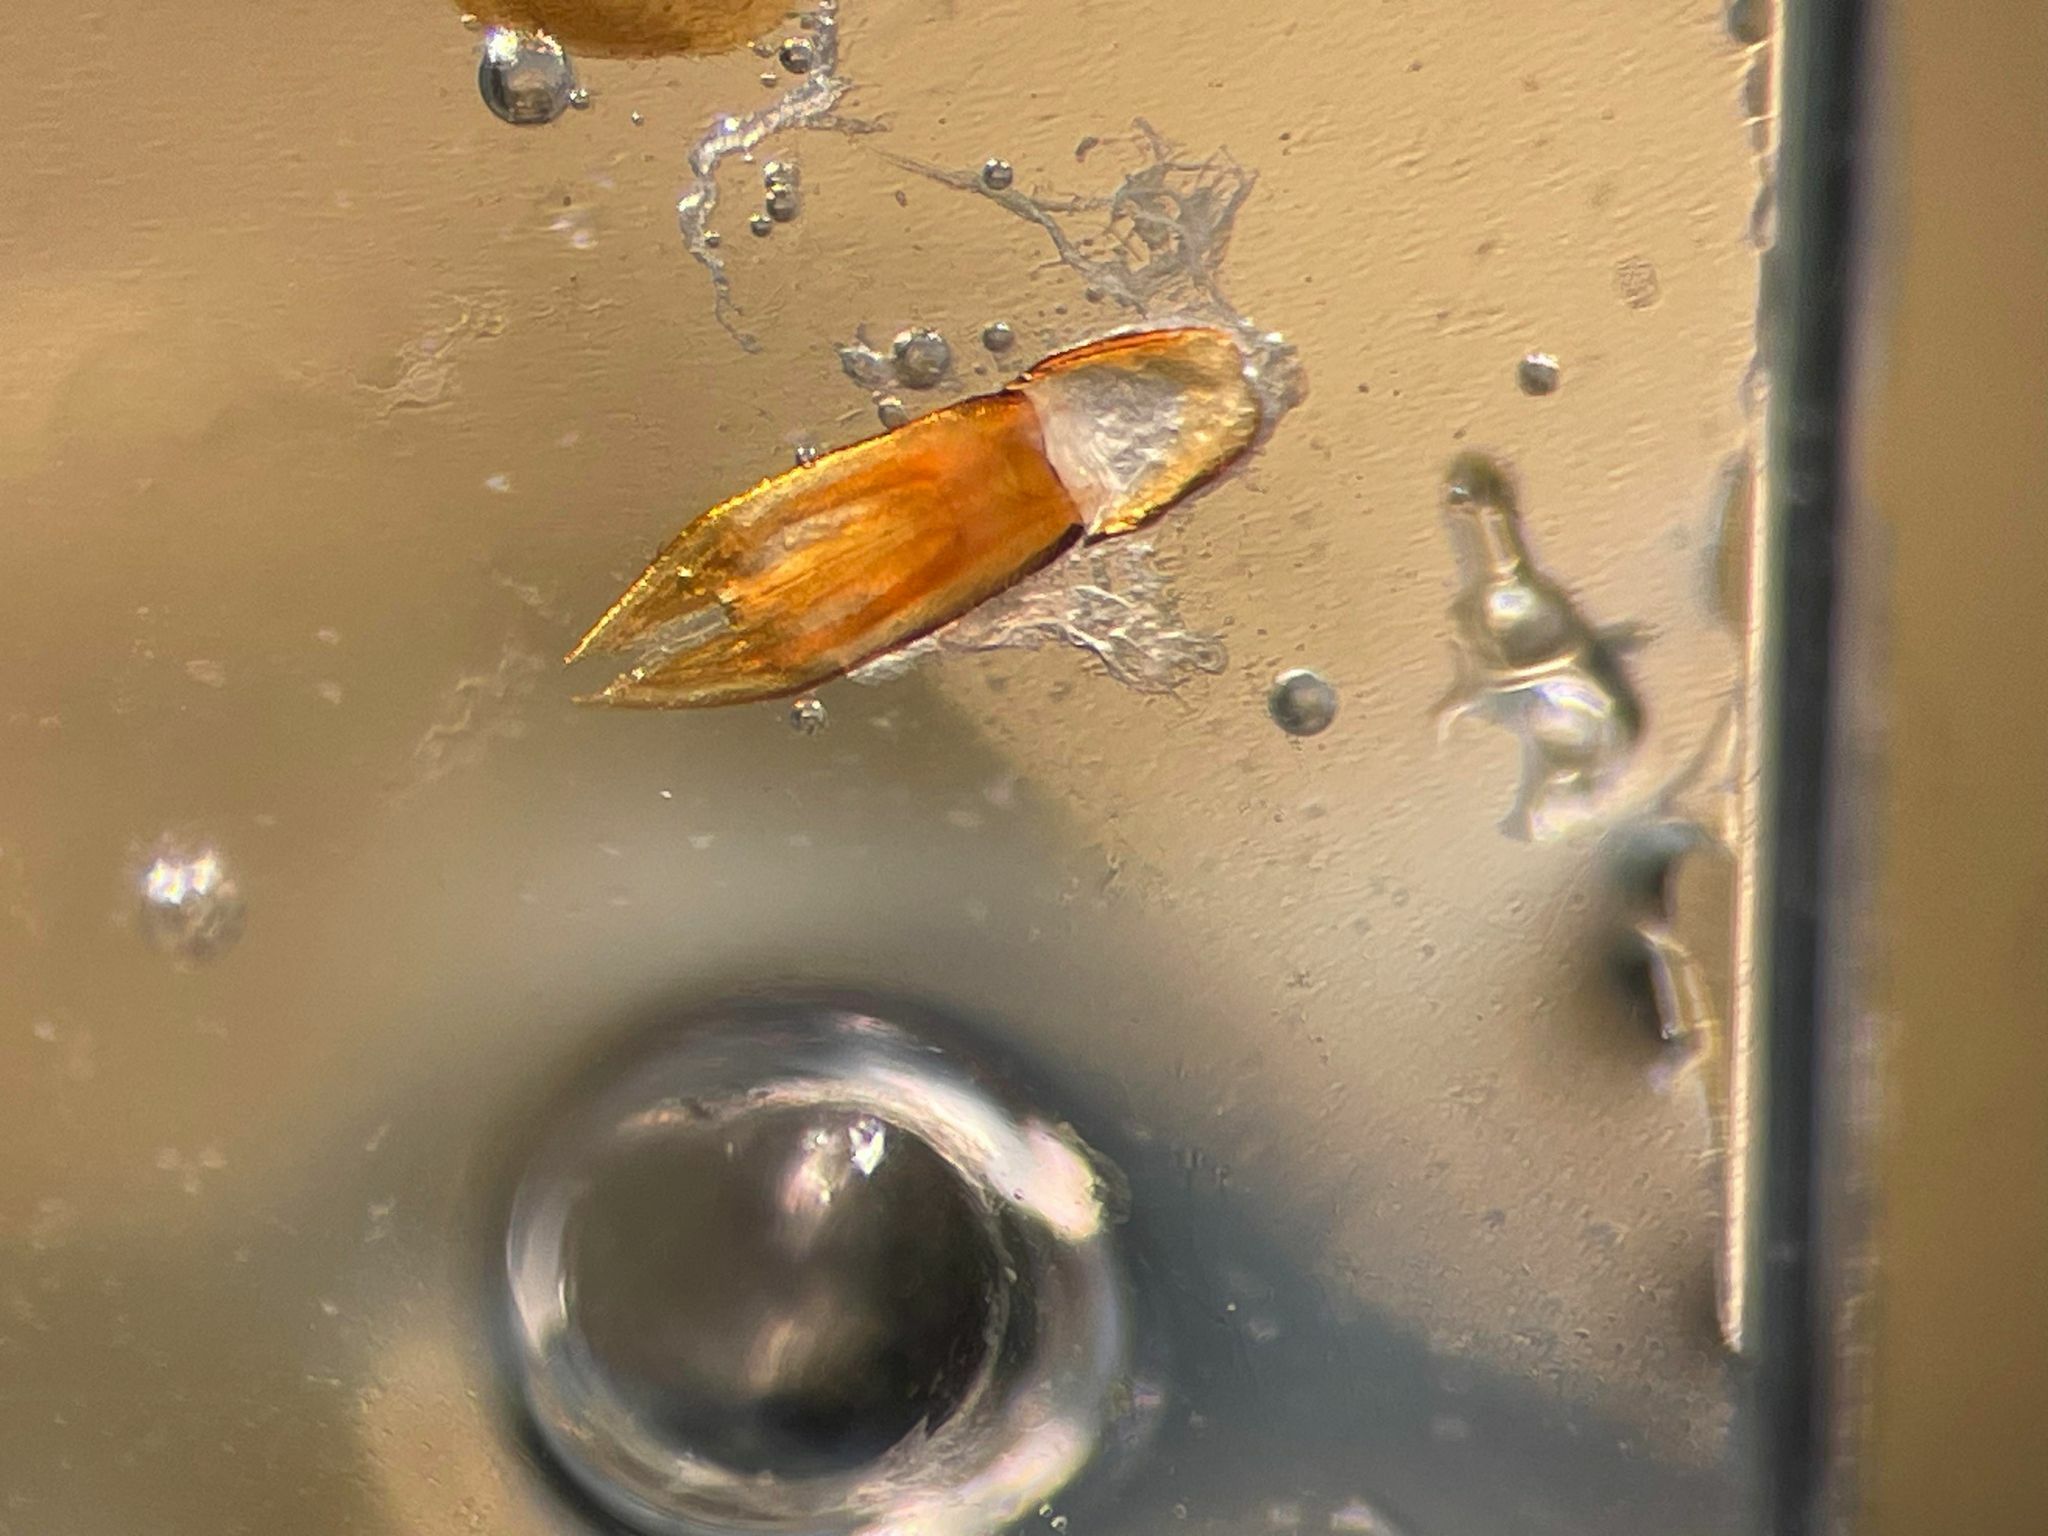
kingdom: Animalia
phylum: Arthropoda
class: Insecta
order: Coleoptera
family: Eucnemidae
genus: Epiphanis
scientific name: Epiphanis cornutus
